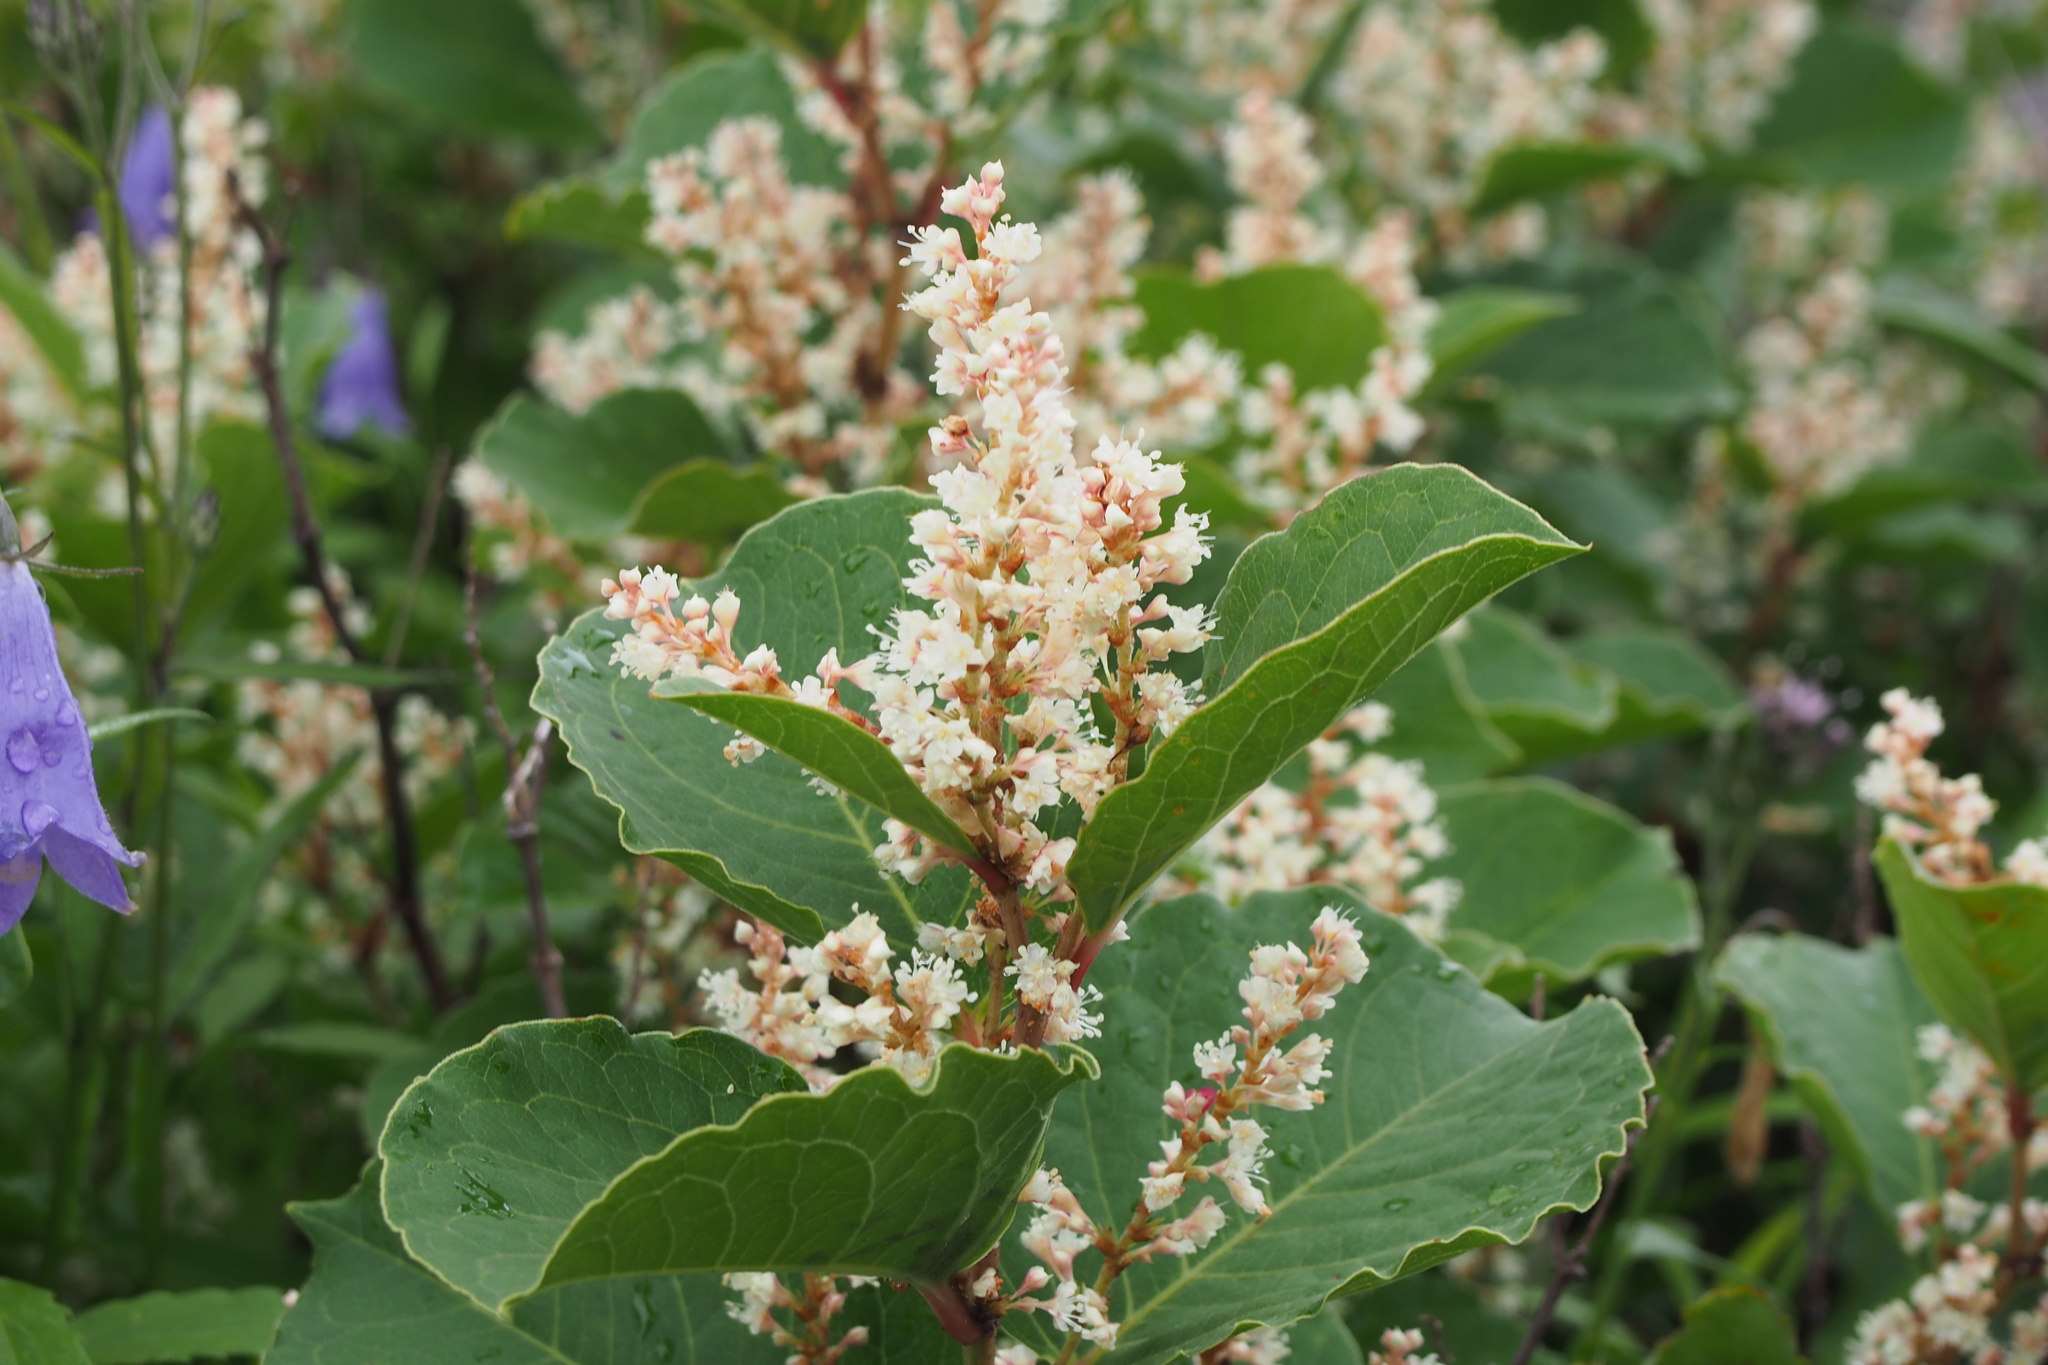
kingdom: Plantae
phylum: Tracheophyta
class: Magnoliopsida
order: Caryophyllales
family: Polygonaceae
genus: Reynoutria
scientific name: Reynoutria japonica
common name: Japanese knotweed
